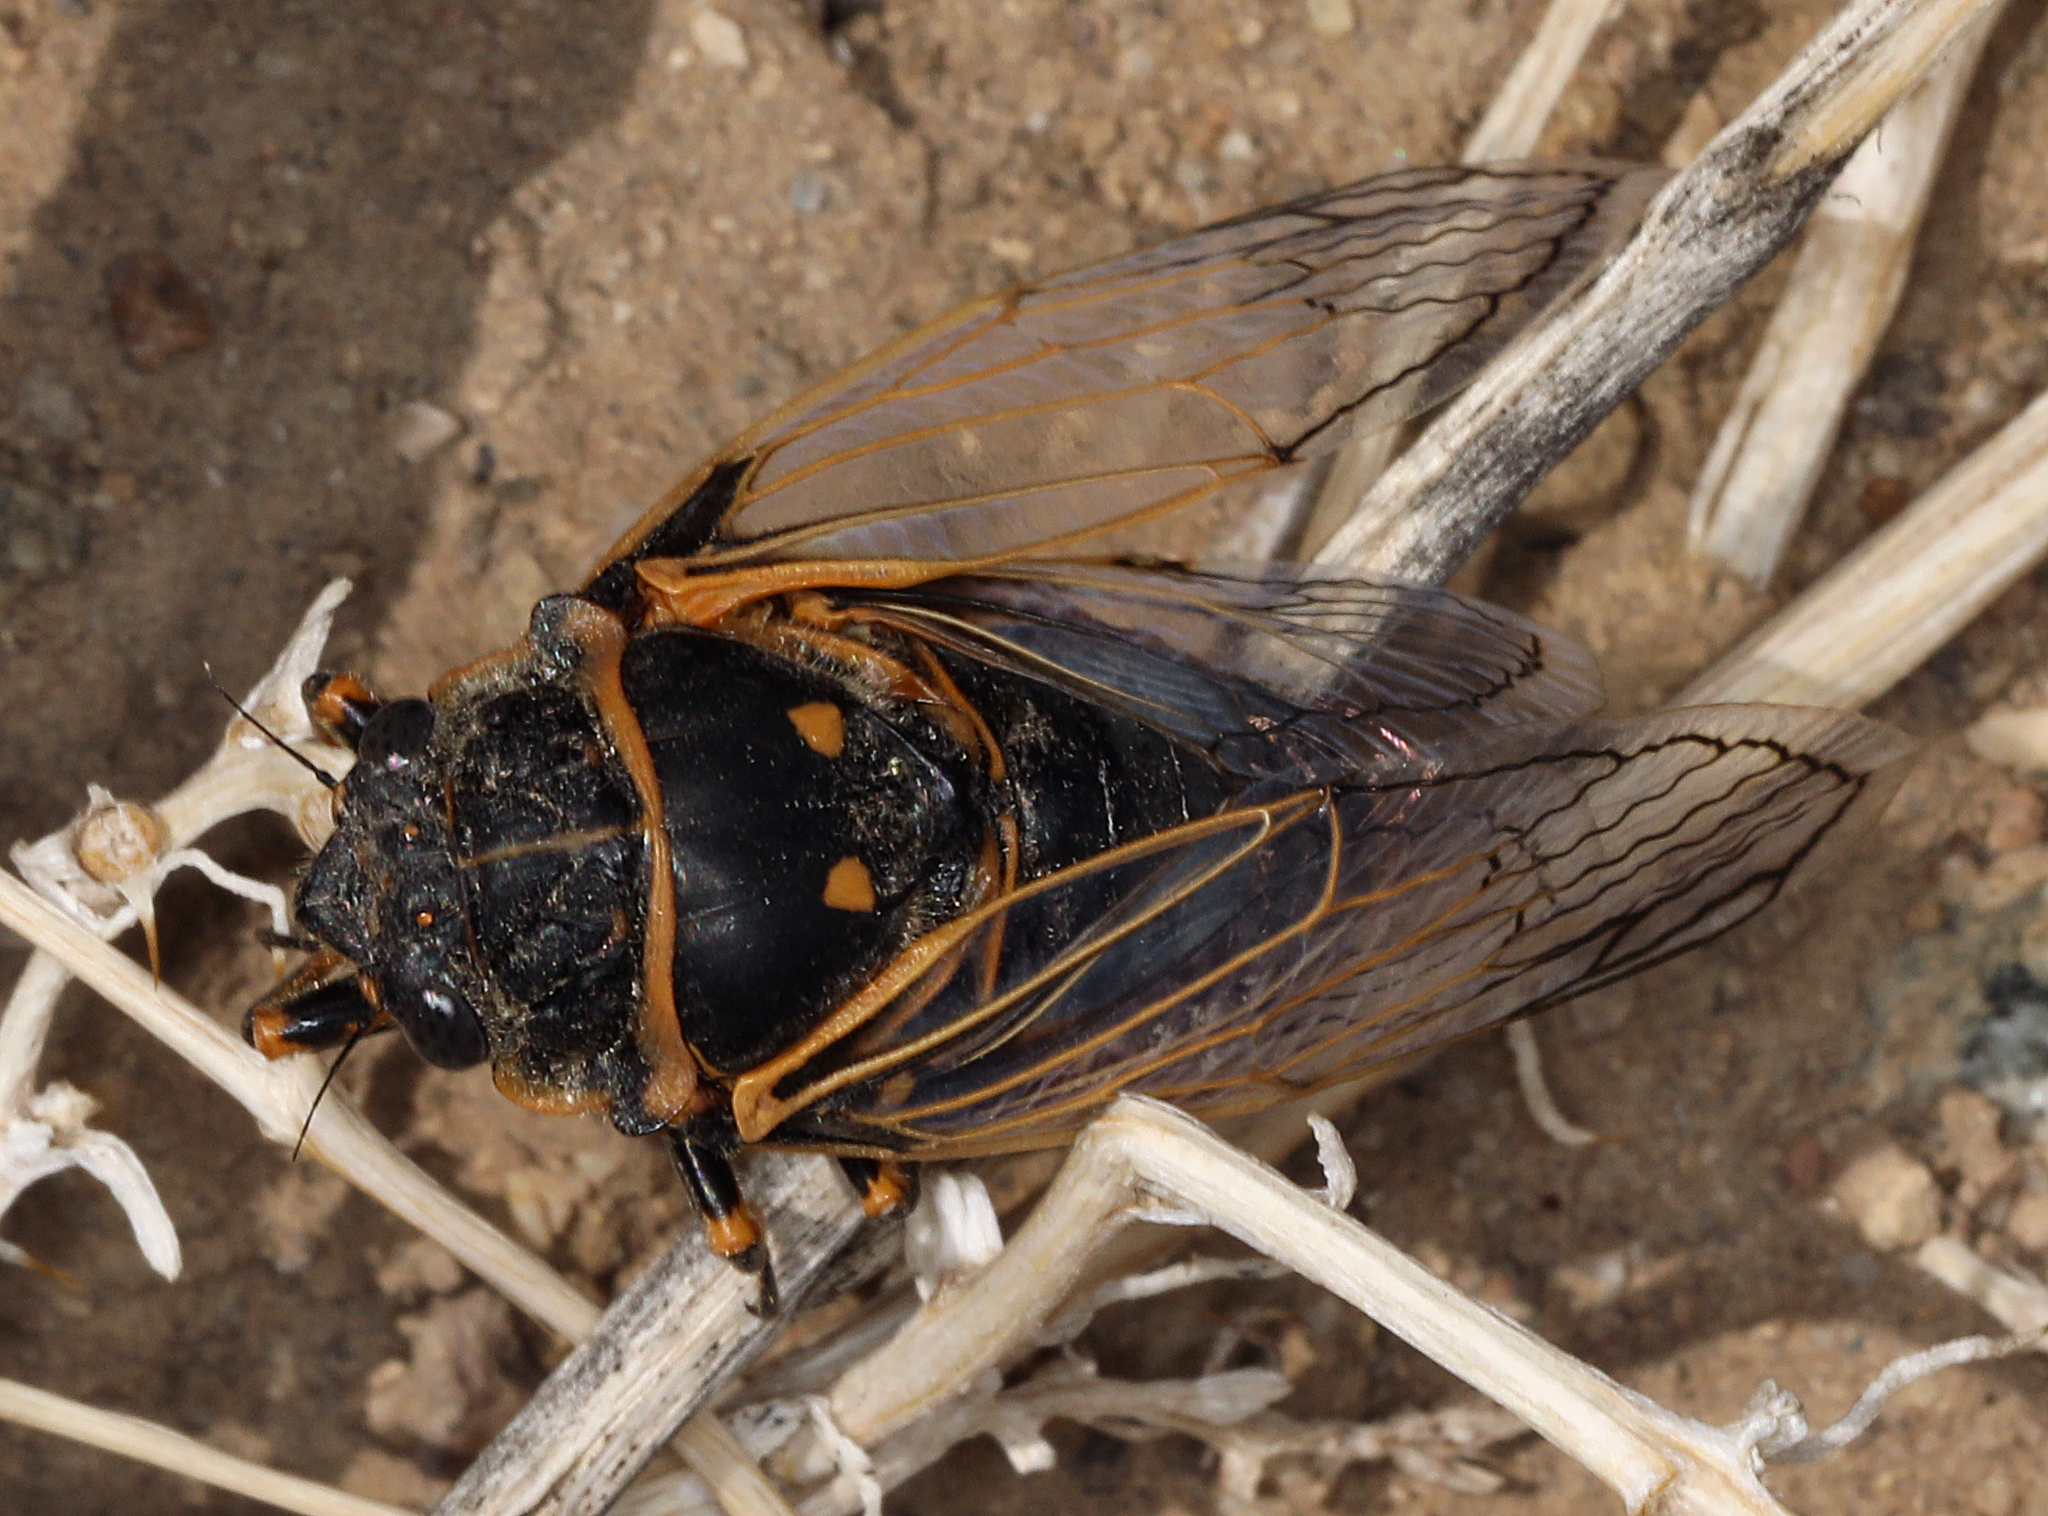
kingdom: Animalia
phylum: Arthropoda
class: Insecta
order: Hemiptera
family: Cicadidae
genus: Okanagana
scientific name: Okanagana gibbera
